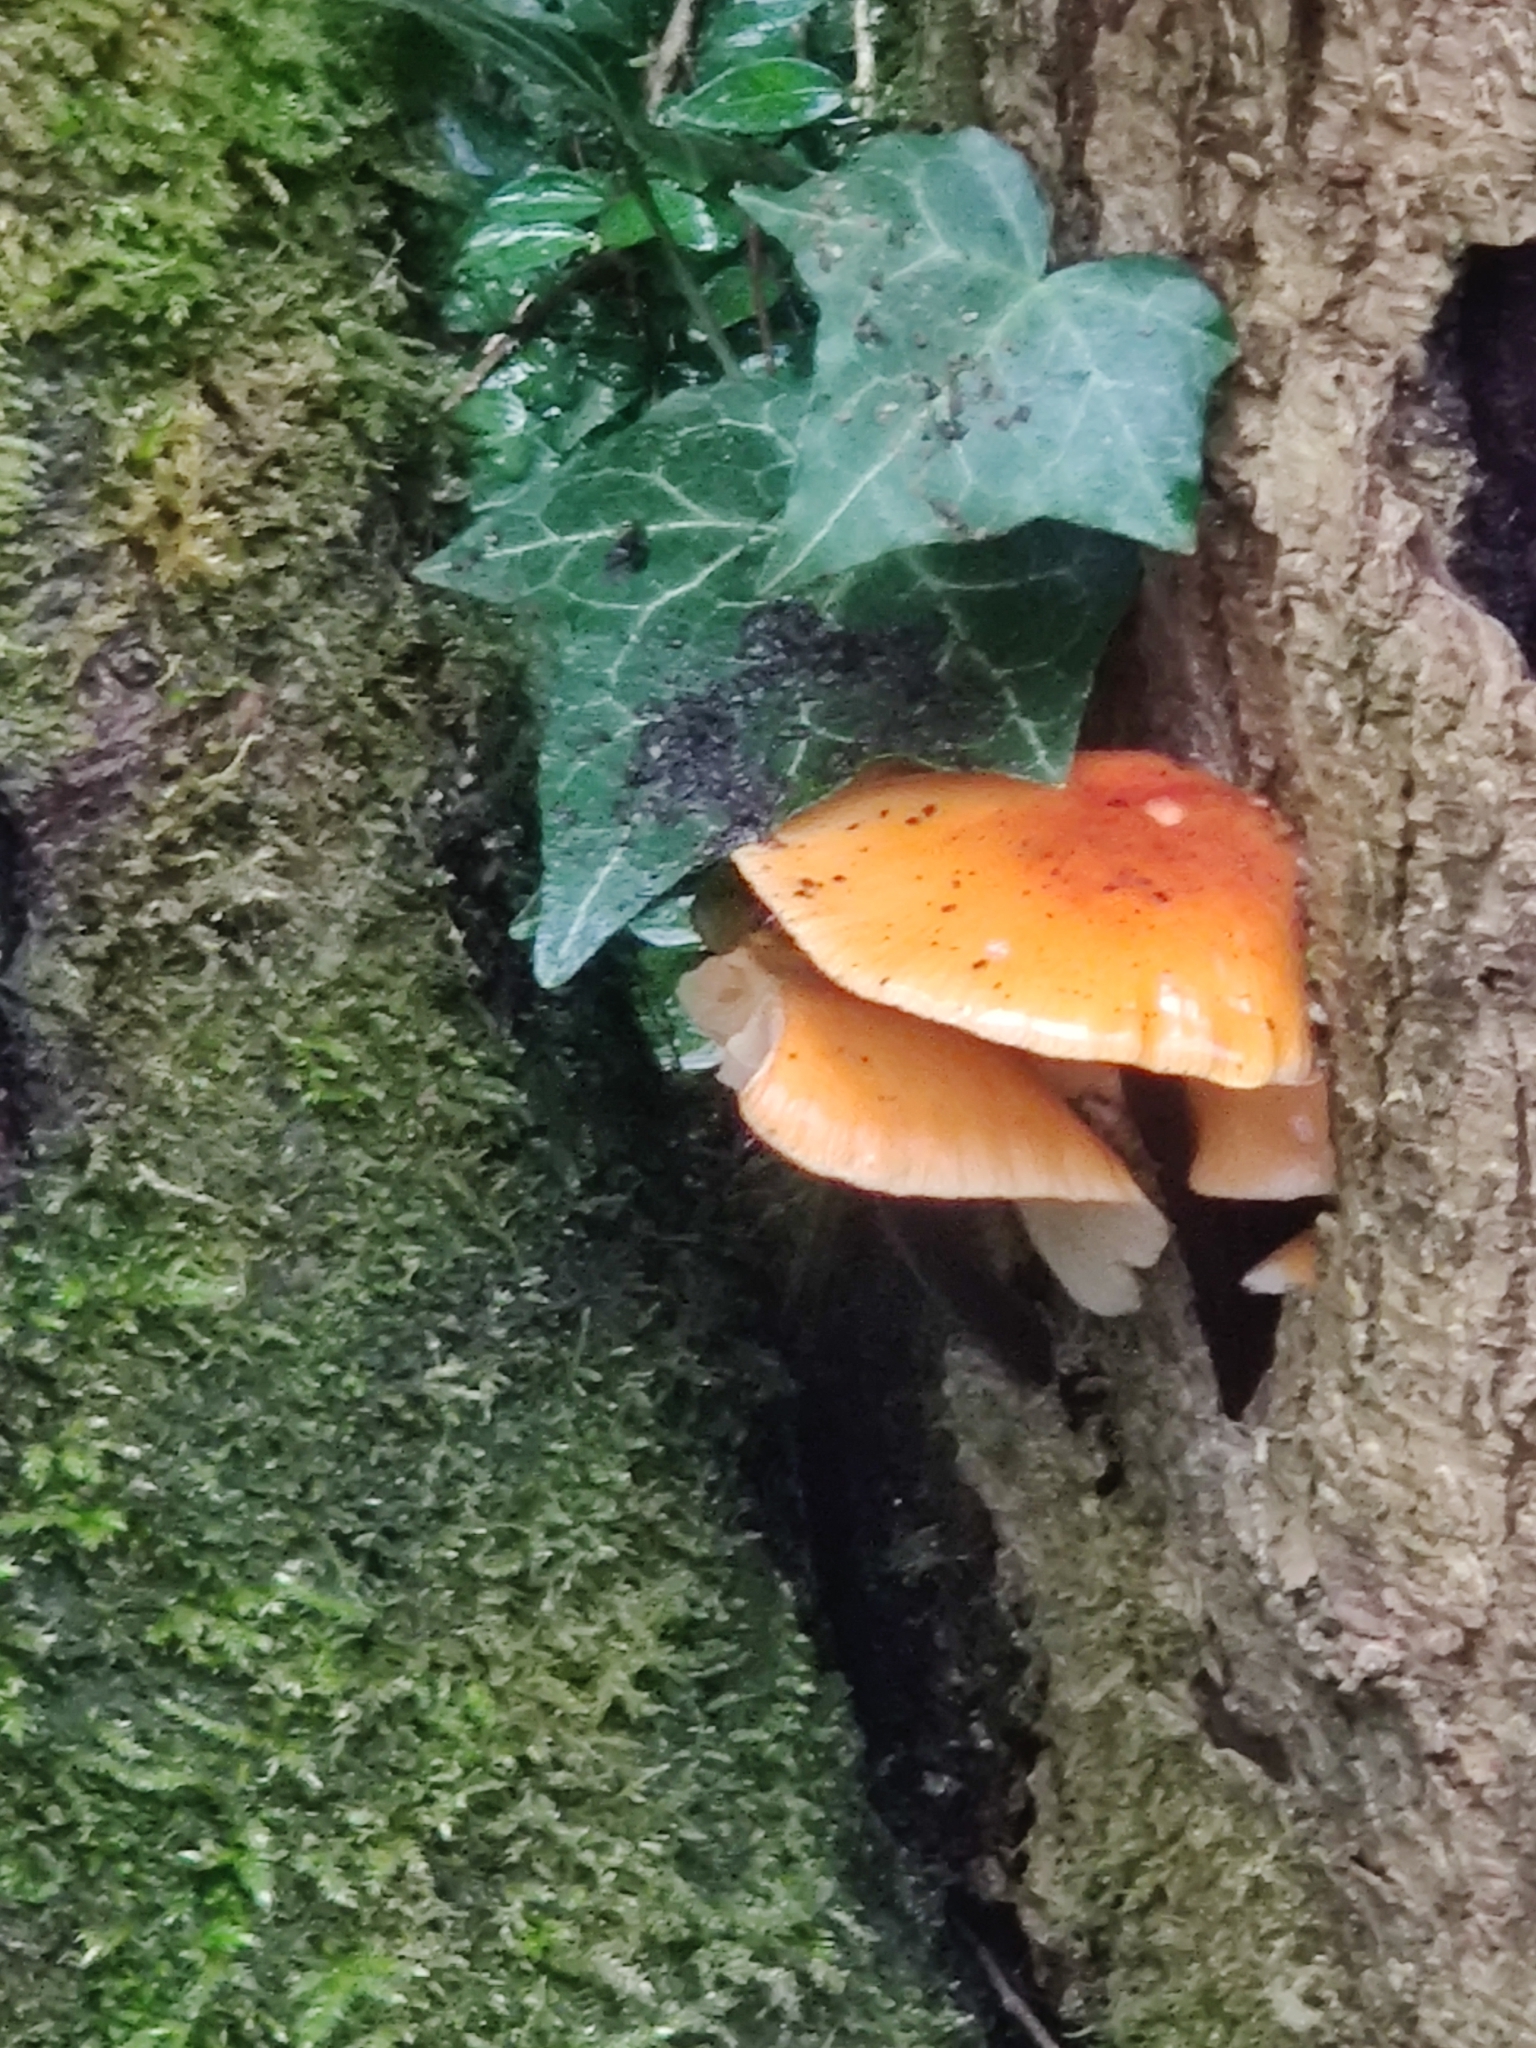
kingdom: Fungi
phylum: Basidiomycota
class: Agaricomycetes
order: Agaricales
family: Physalacriaceae
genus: Flammulina
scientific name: Flammulina
